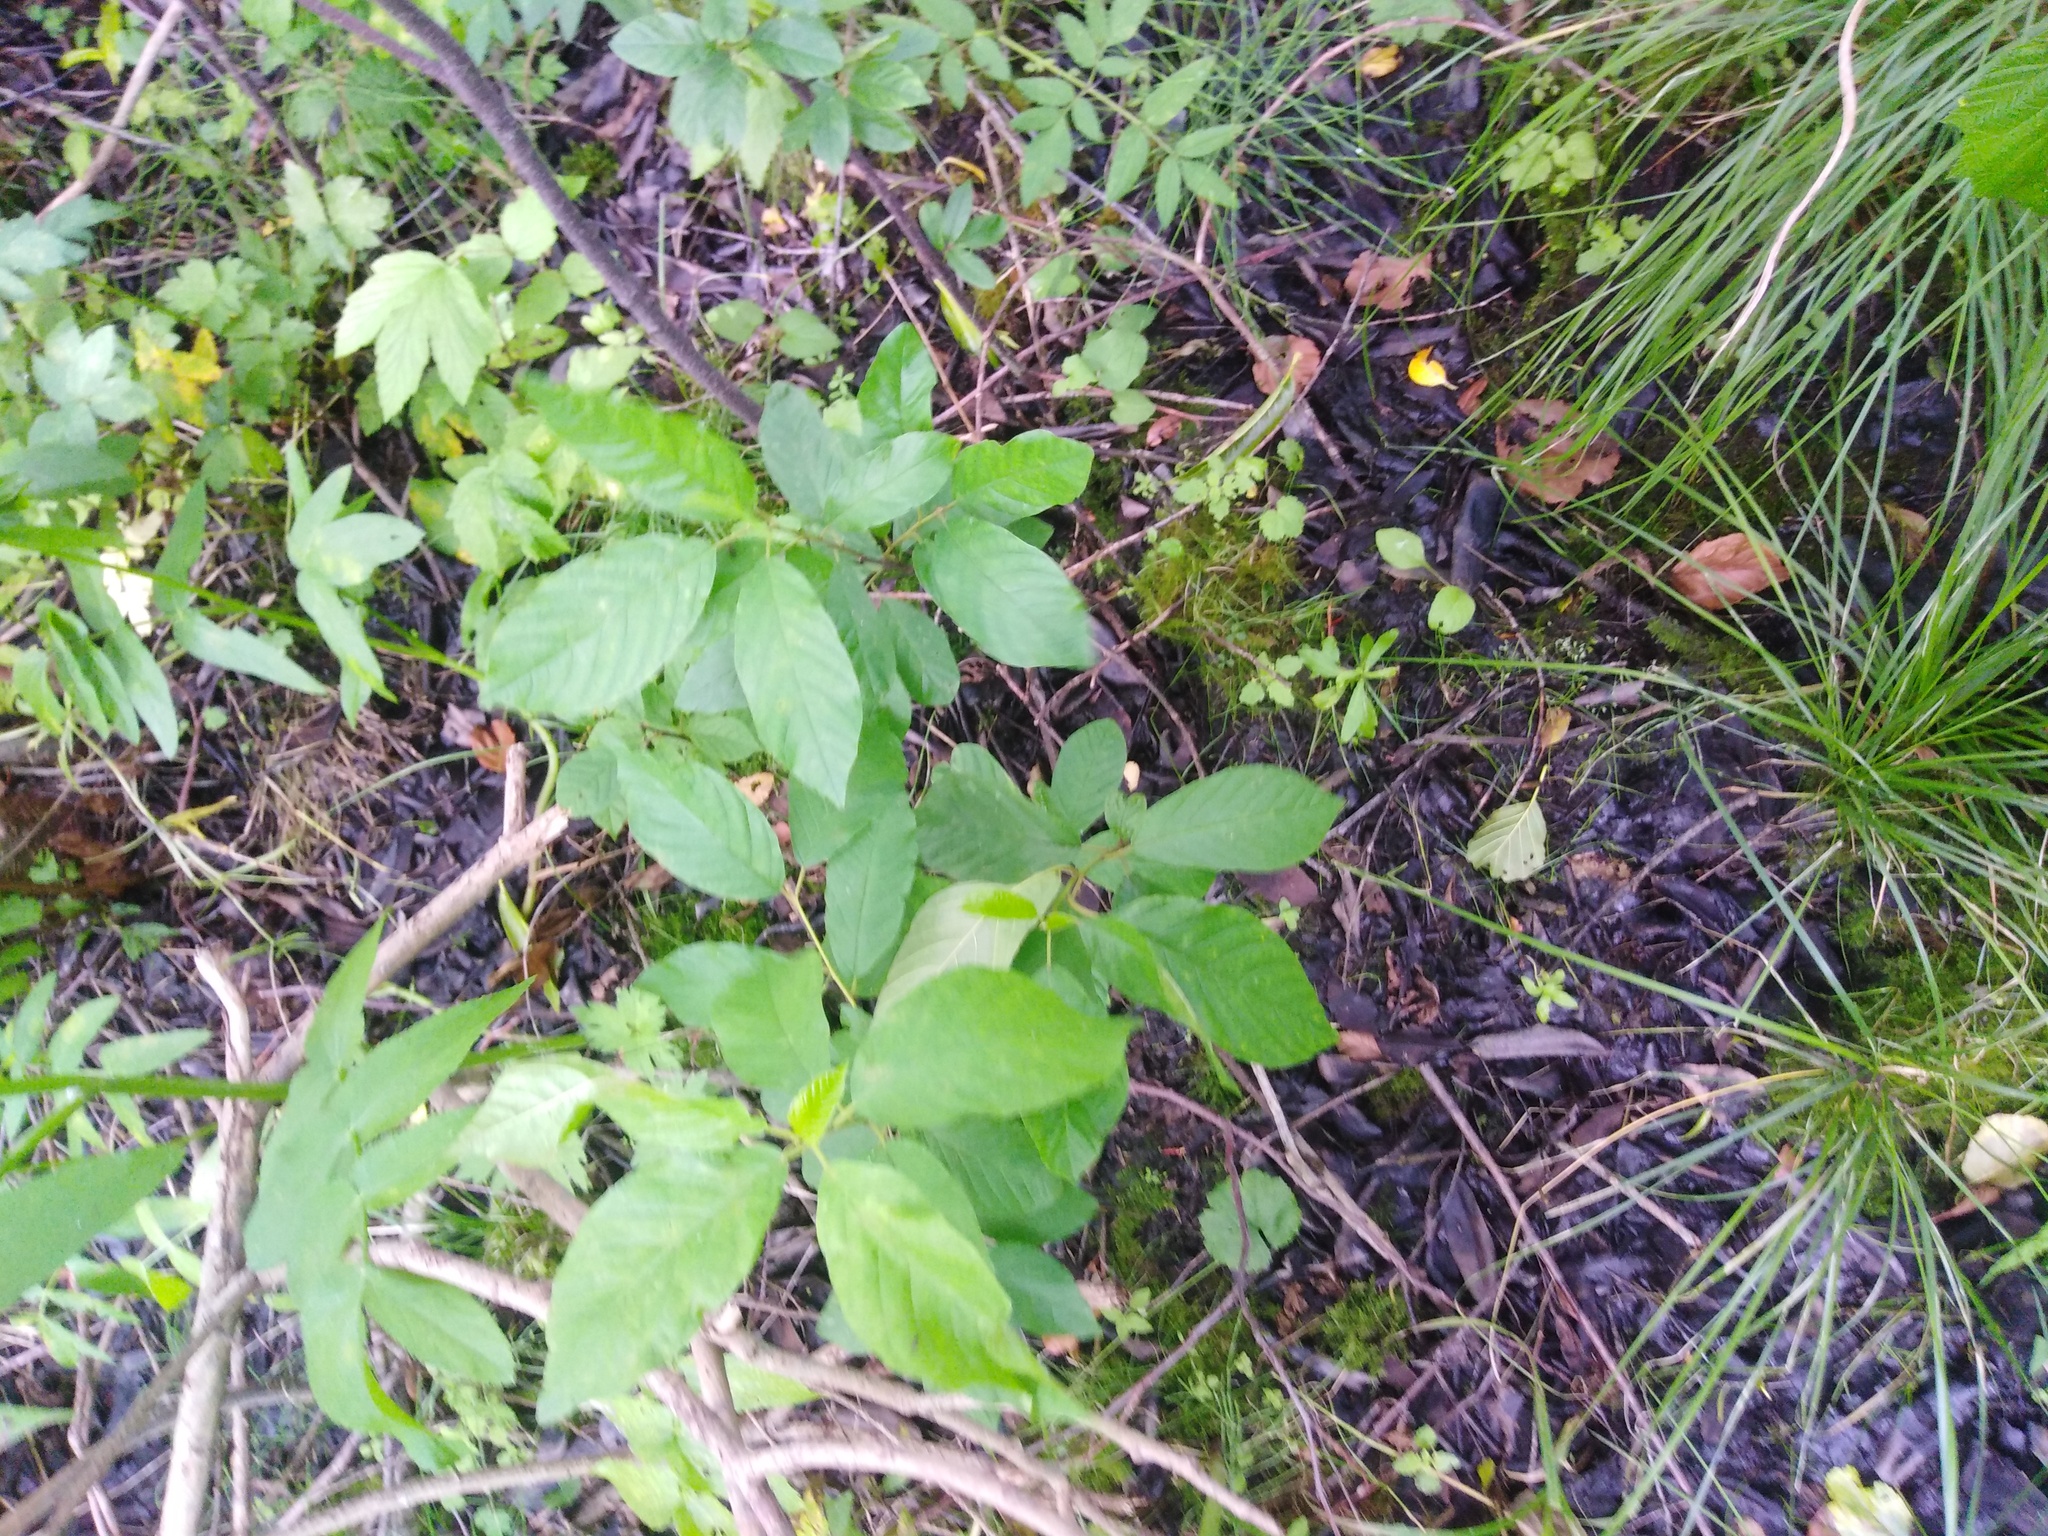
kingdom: Plantae
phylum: Tracheophyta
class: Magnoliopsida
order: Rosales
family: Rhamnaceae
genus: Frangula
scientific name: Frangula alnus
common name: Alder buckthorn
